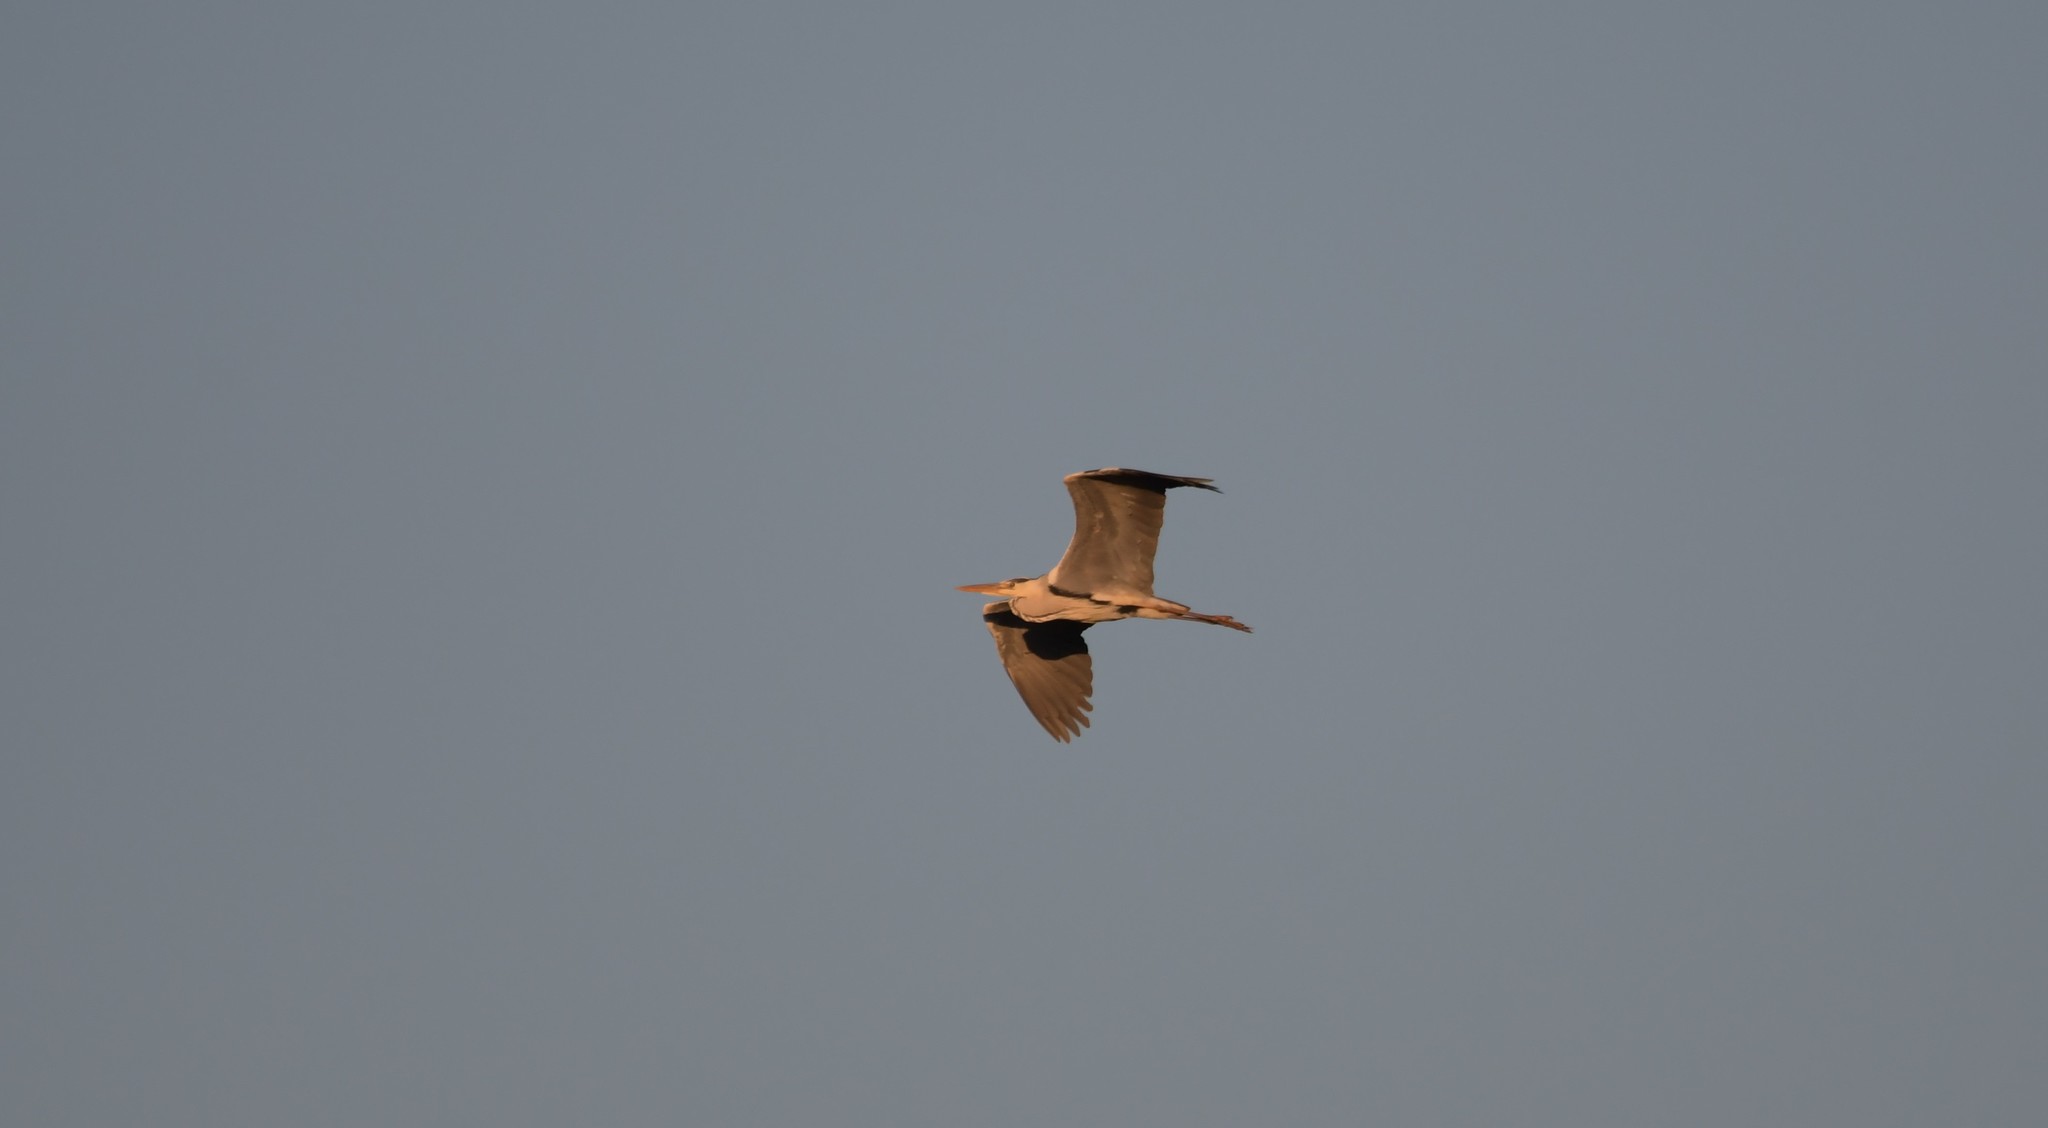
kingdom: Animalia
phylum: Chordata
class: Aves
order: Pelecaniformes
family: Ardeidae
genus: Ardea
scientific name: Ardea cinerea
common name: Grey heron
